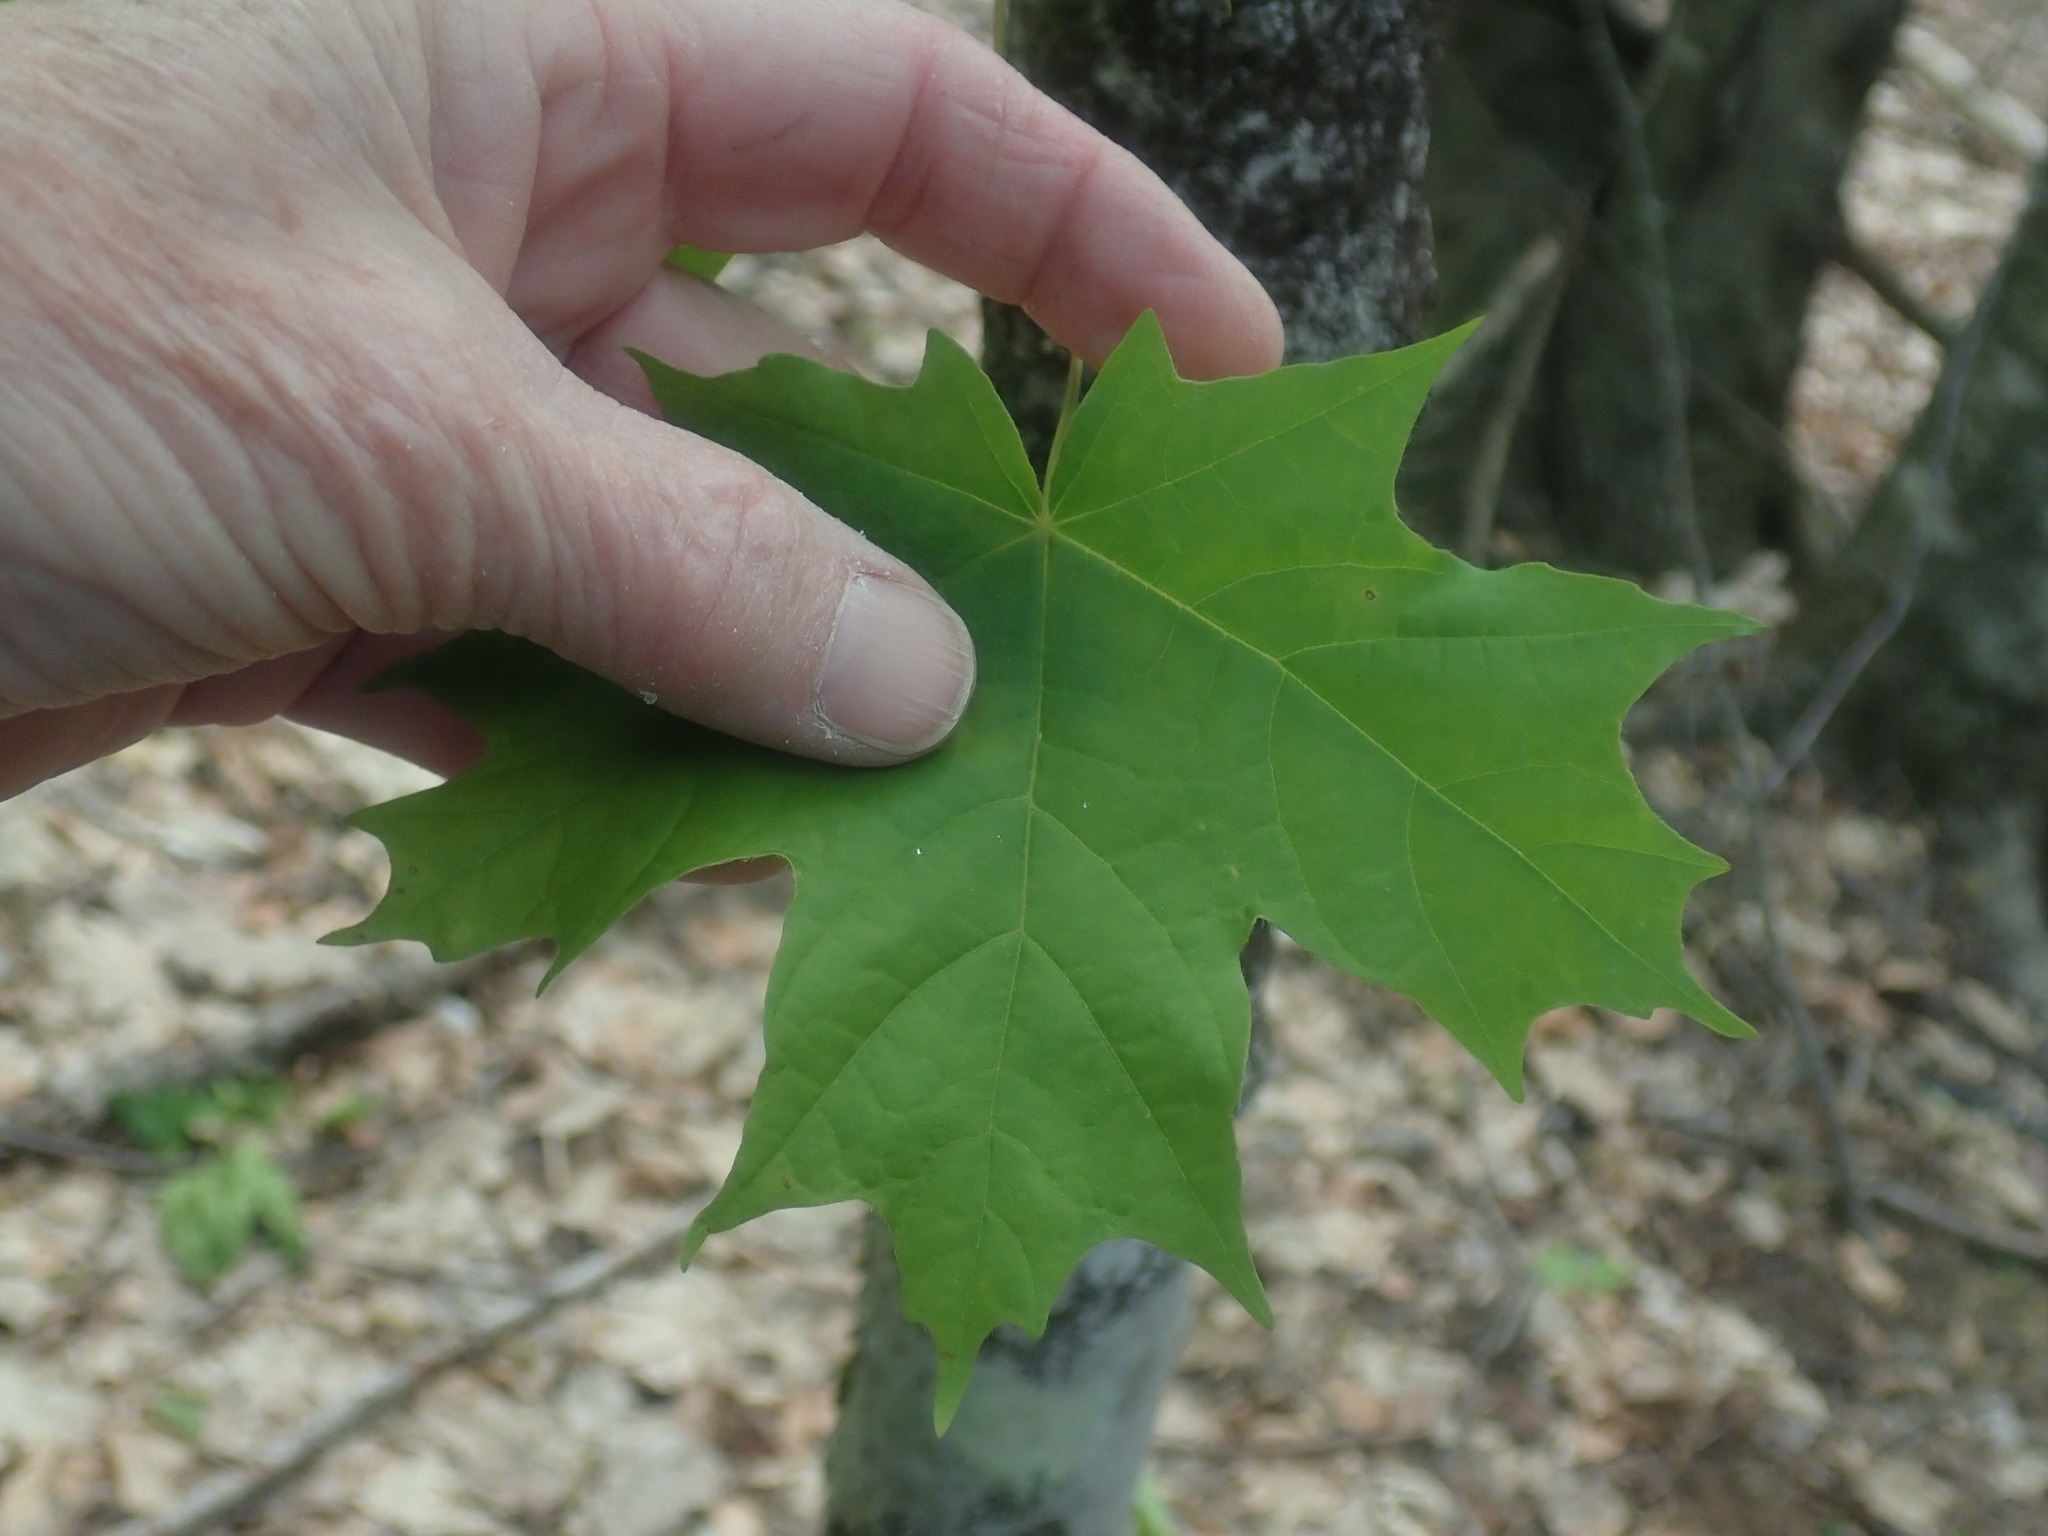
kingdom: Plantae
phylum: Tracheophyta
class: Magnoliopsida
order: Sapindales
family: Sapindaceae
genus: Acer
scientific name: Acer saccharum
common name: Sugar maple
